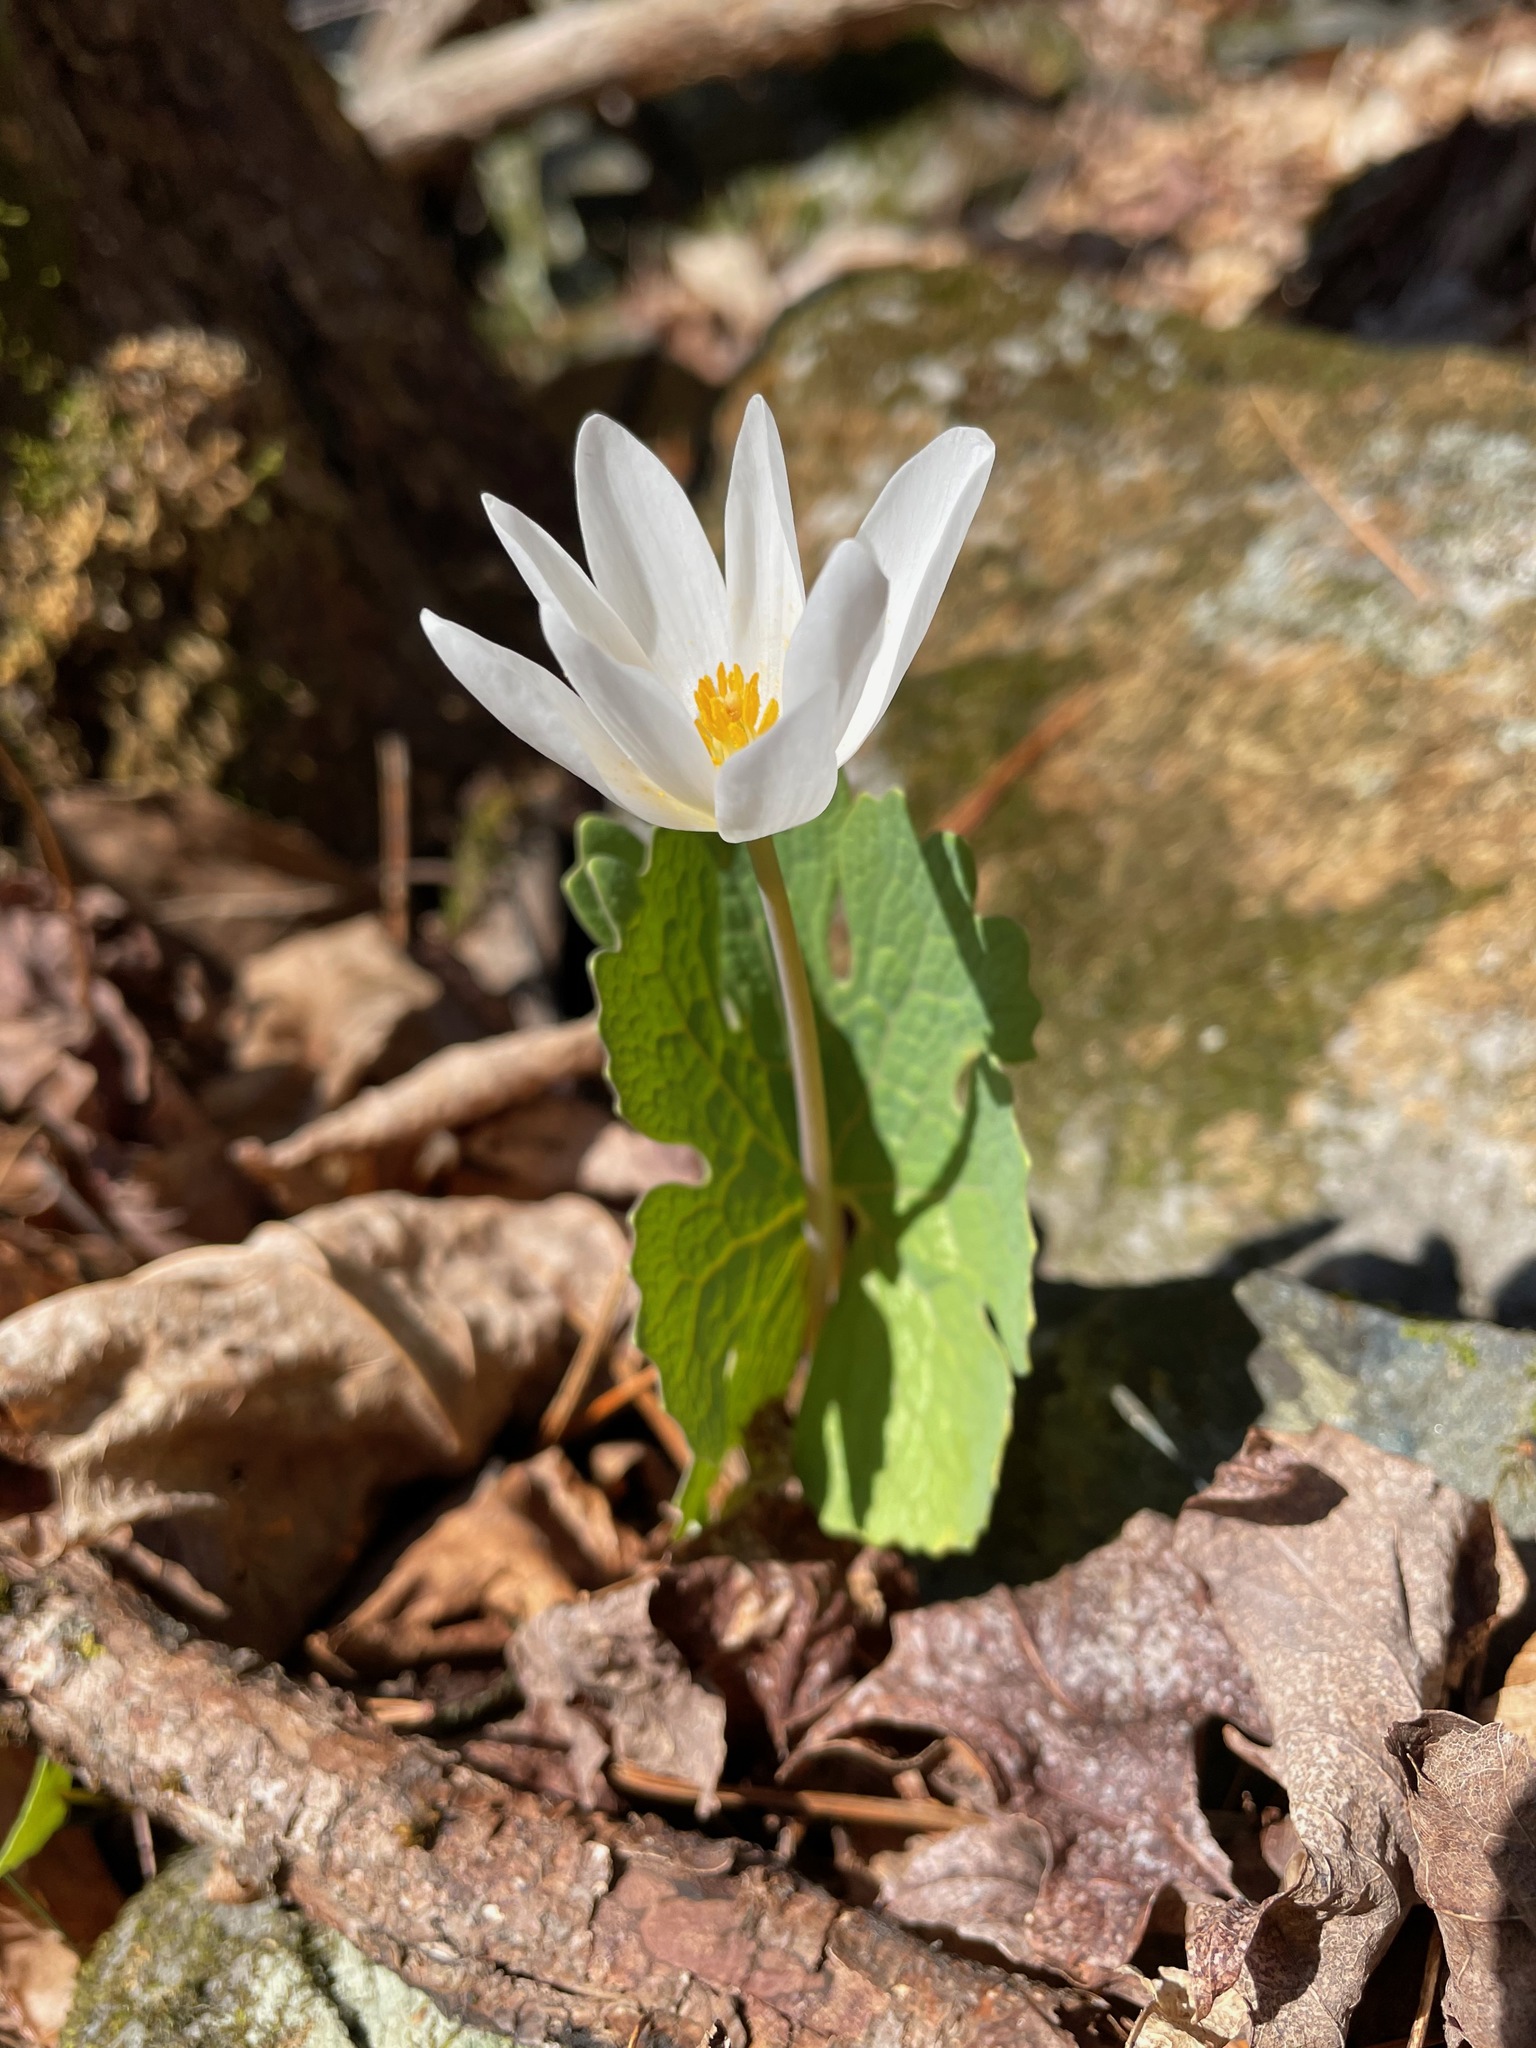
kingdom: Plantae
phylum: Tracheophyta
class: Magnoliopsida
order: Ranunculales
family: Papaveraceae
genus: Sanguinaria
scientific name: Sanguinaria canadensis
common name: Bloodroot
